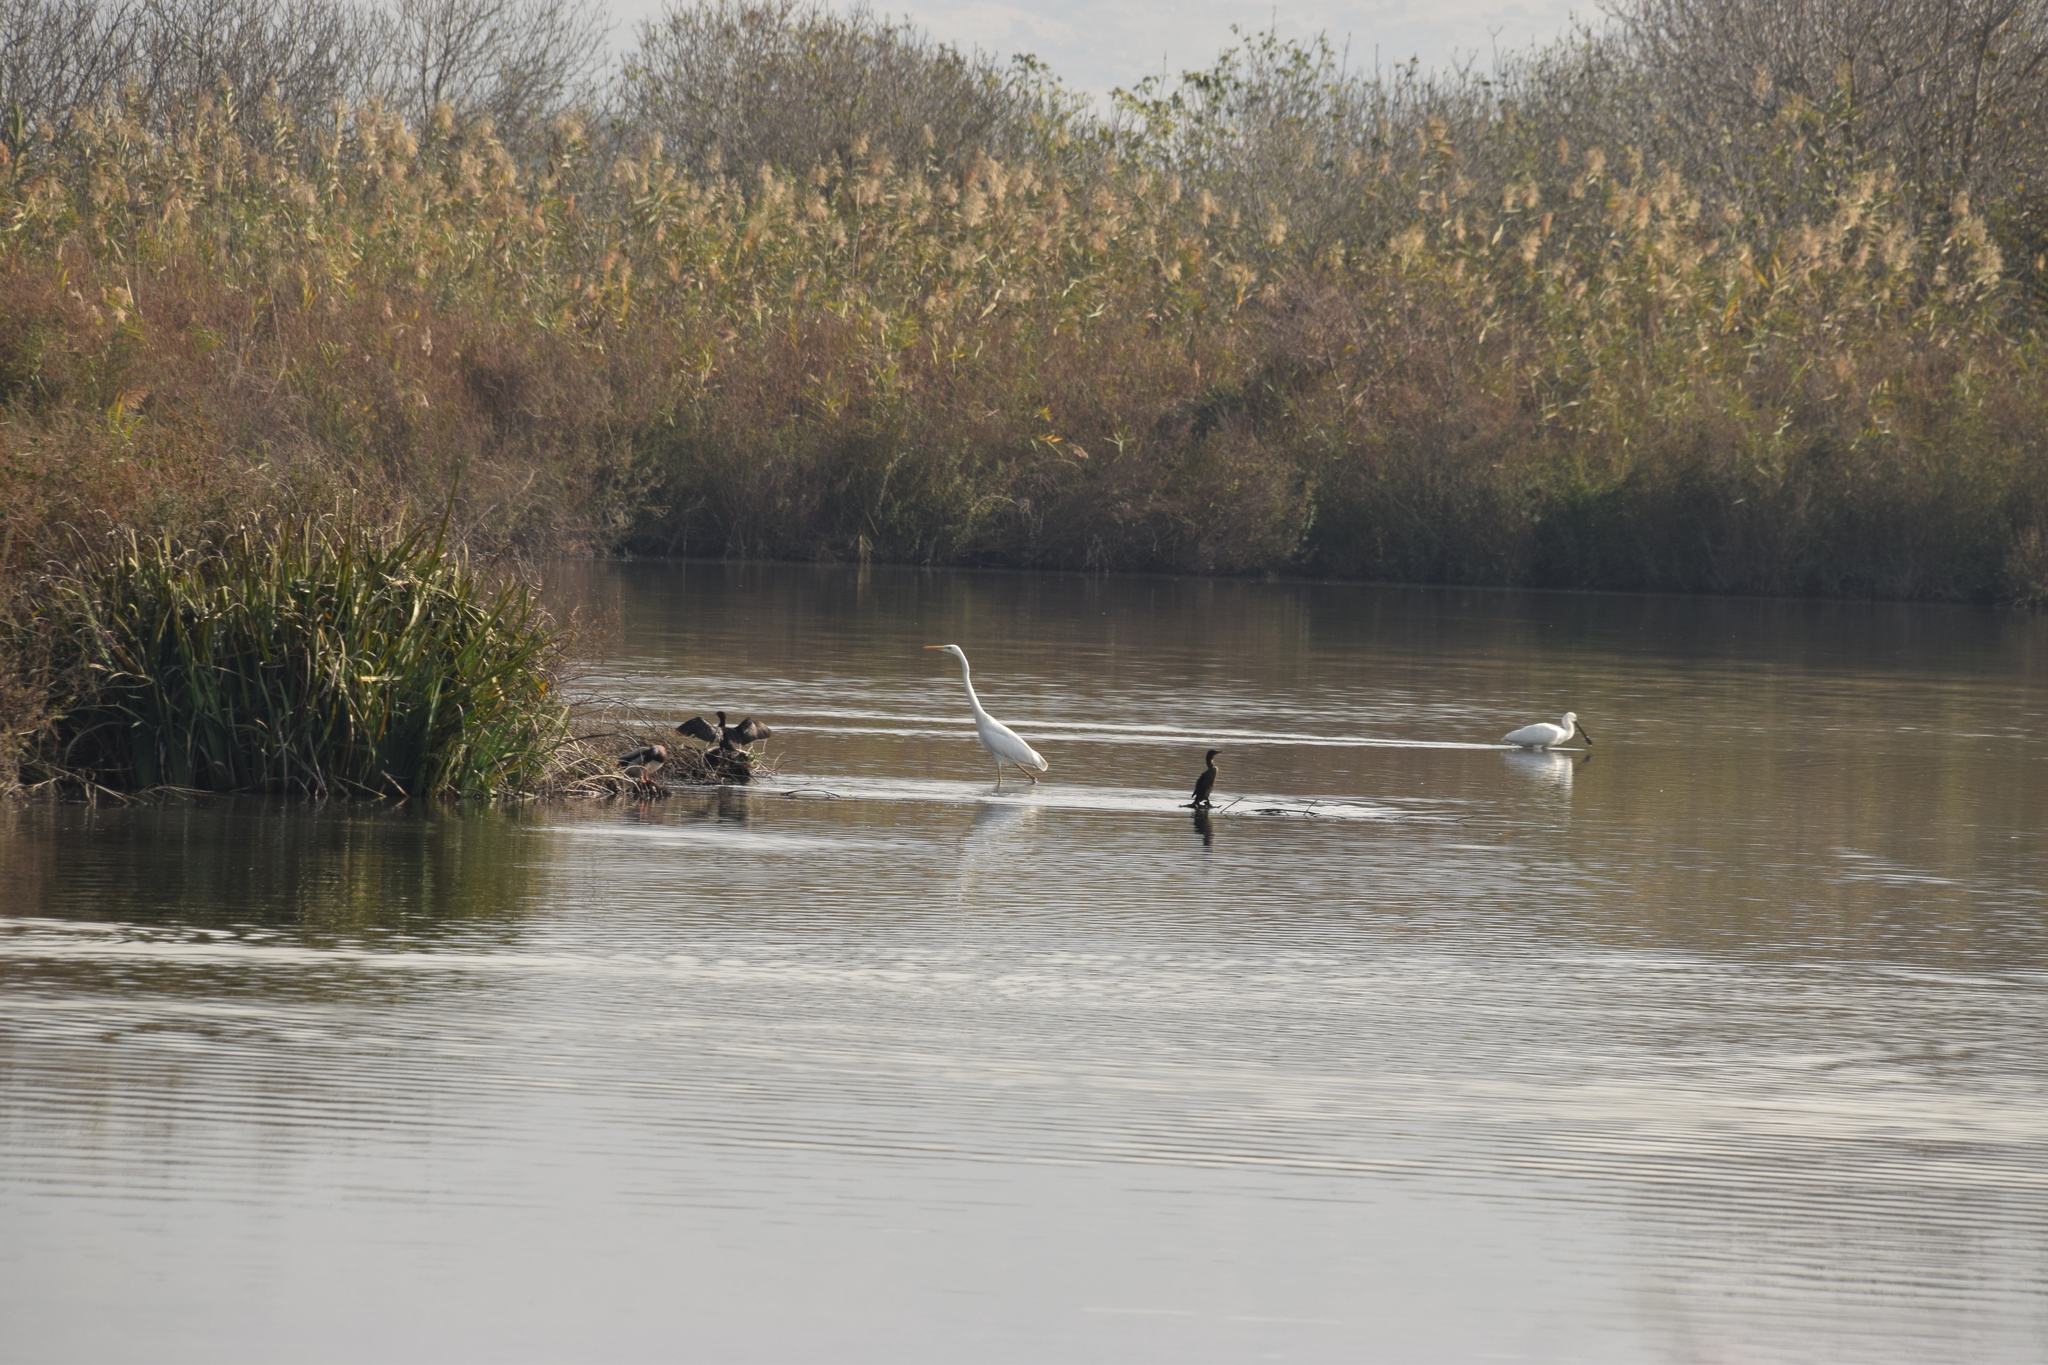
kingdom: Animalia
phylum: Chordata
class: Aves
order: Pelecaniformes
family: Ardeidae
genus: Ardea
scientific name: Ardea alba
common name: Great egret
